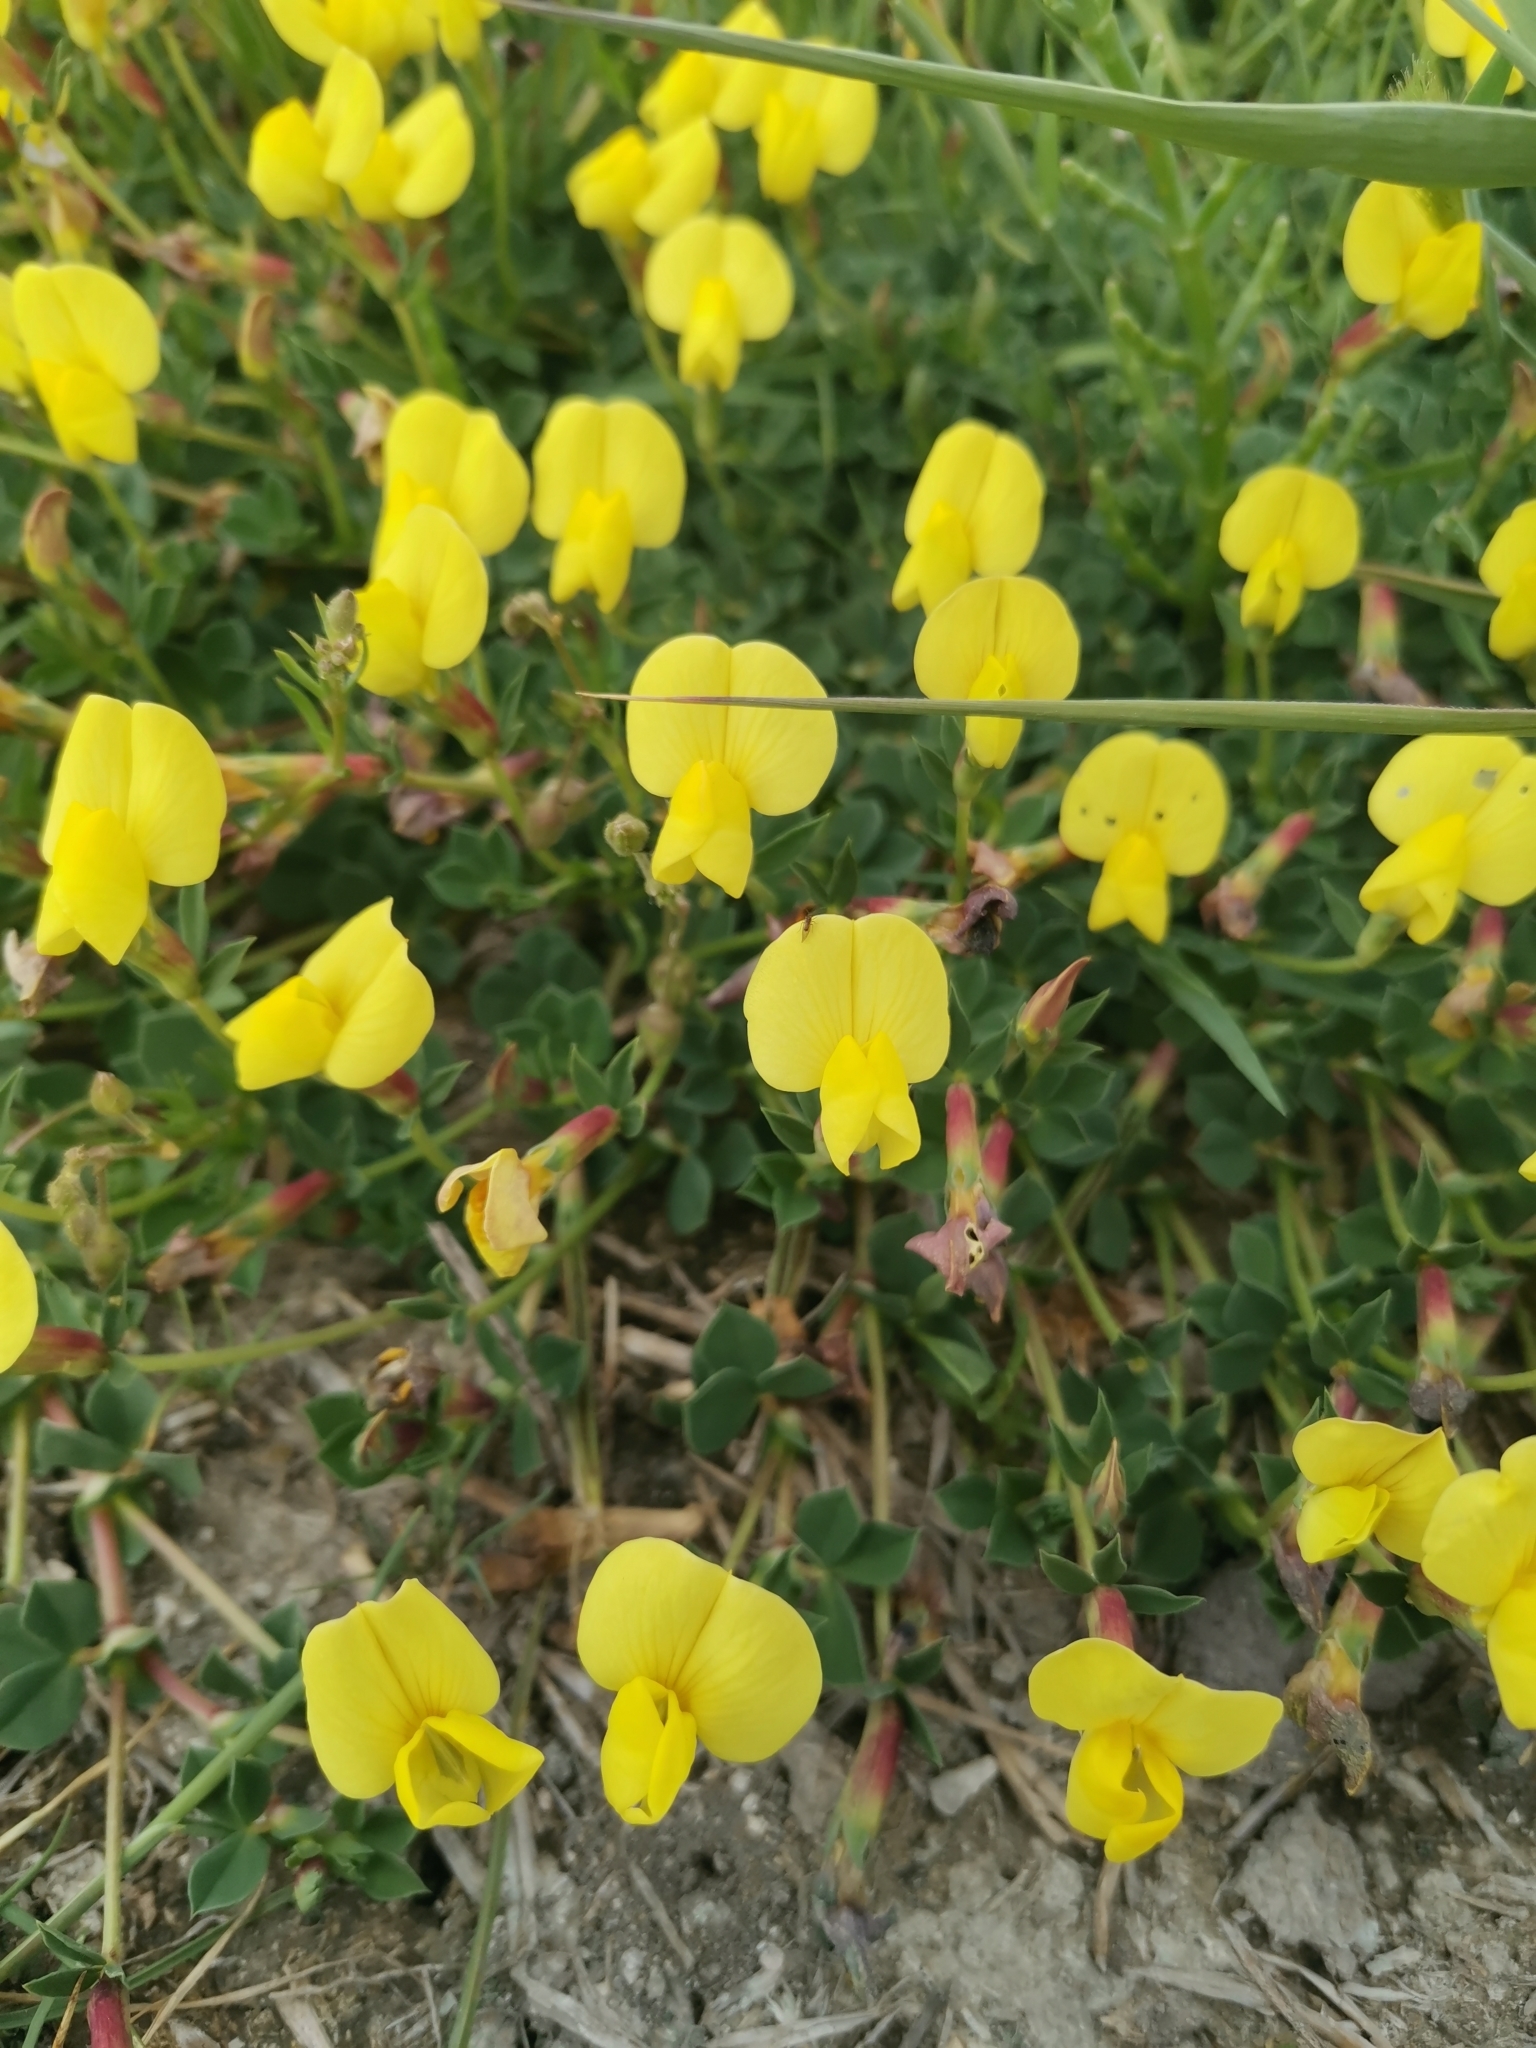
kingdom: Plantae
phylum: Tracheophyta
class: Magnoliopsida
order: Fabales
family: Fabaceae
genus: Lotus
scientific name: Lotus maritimus
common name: Dragon's-teeth
